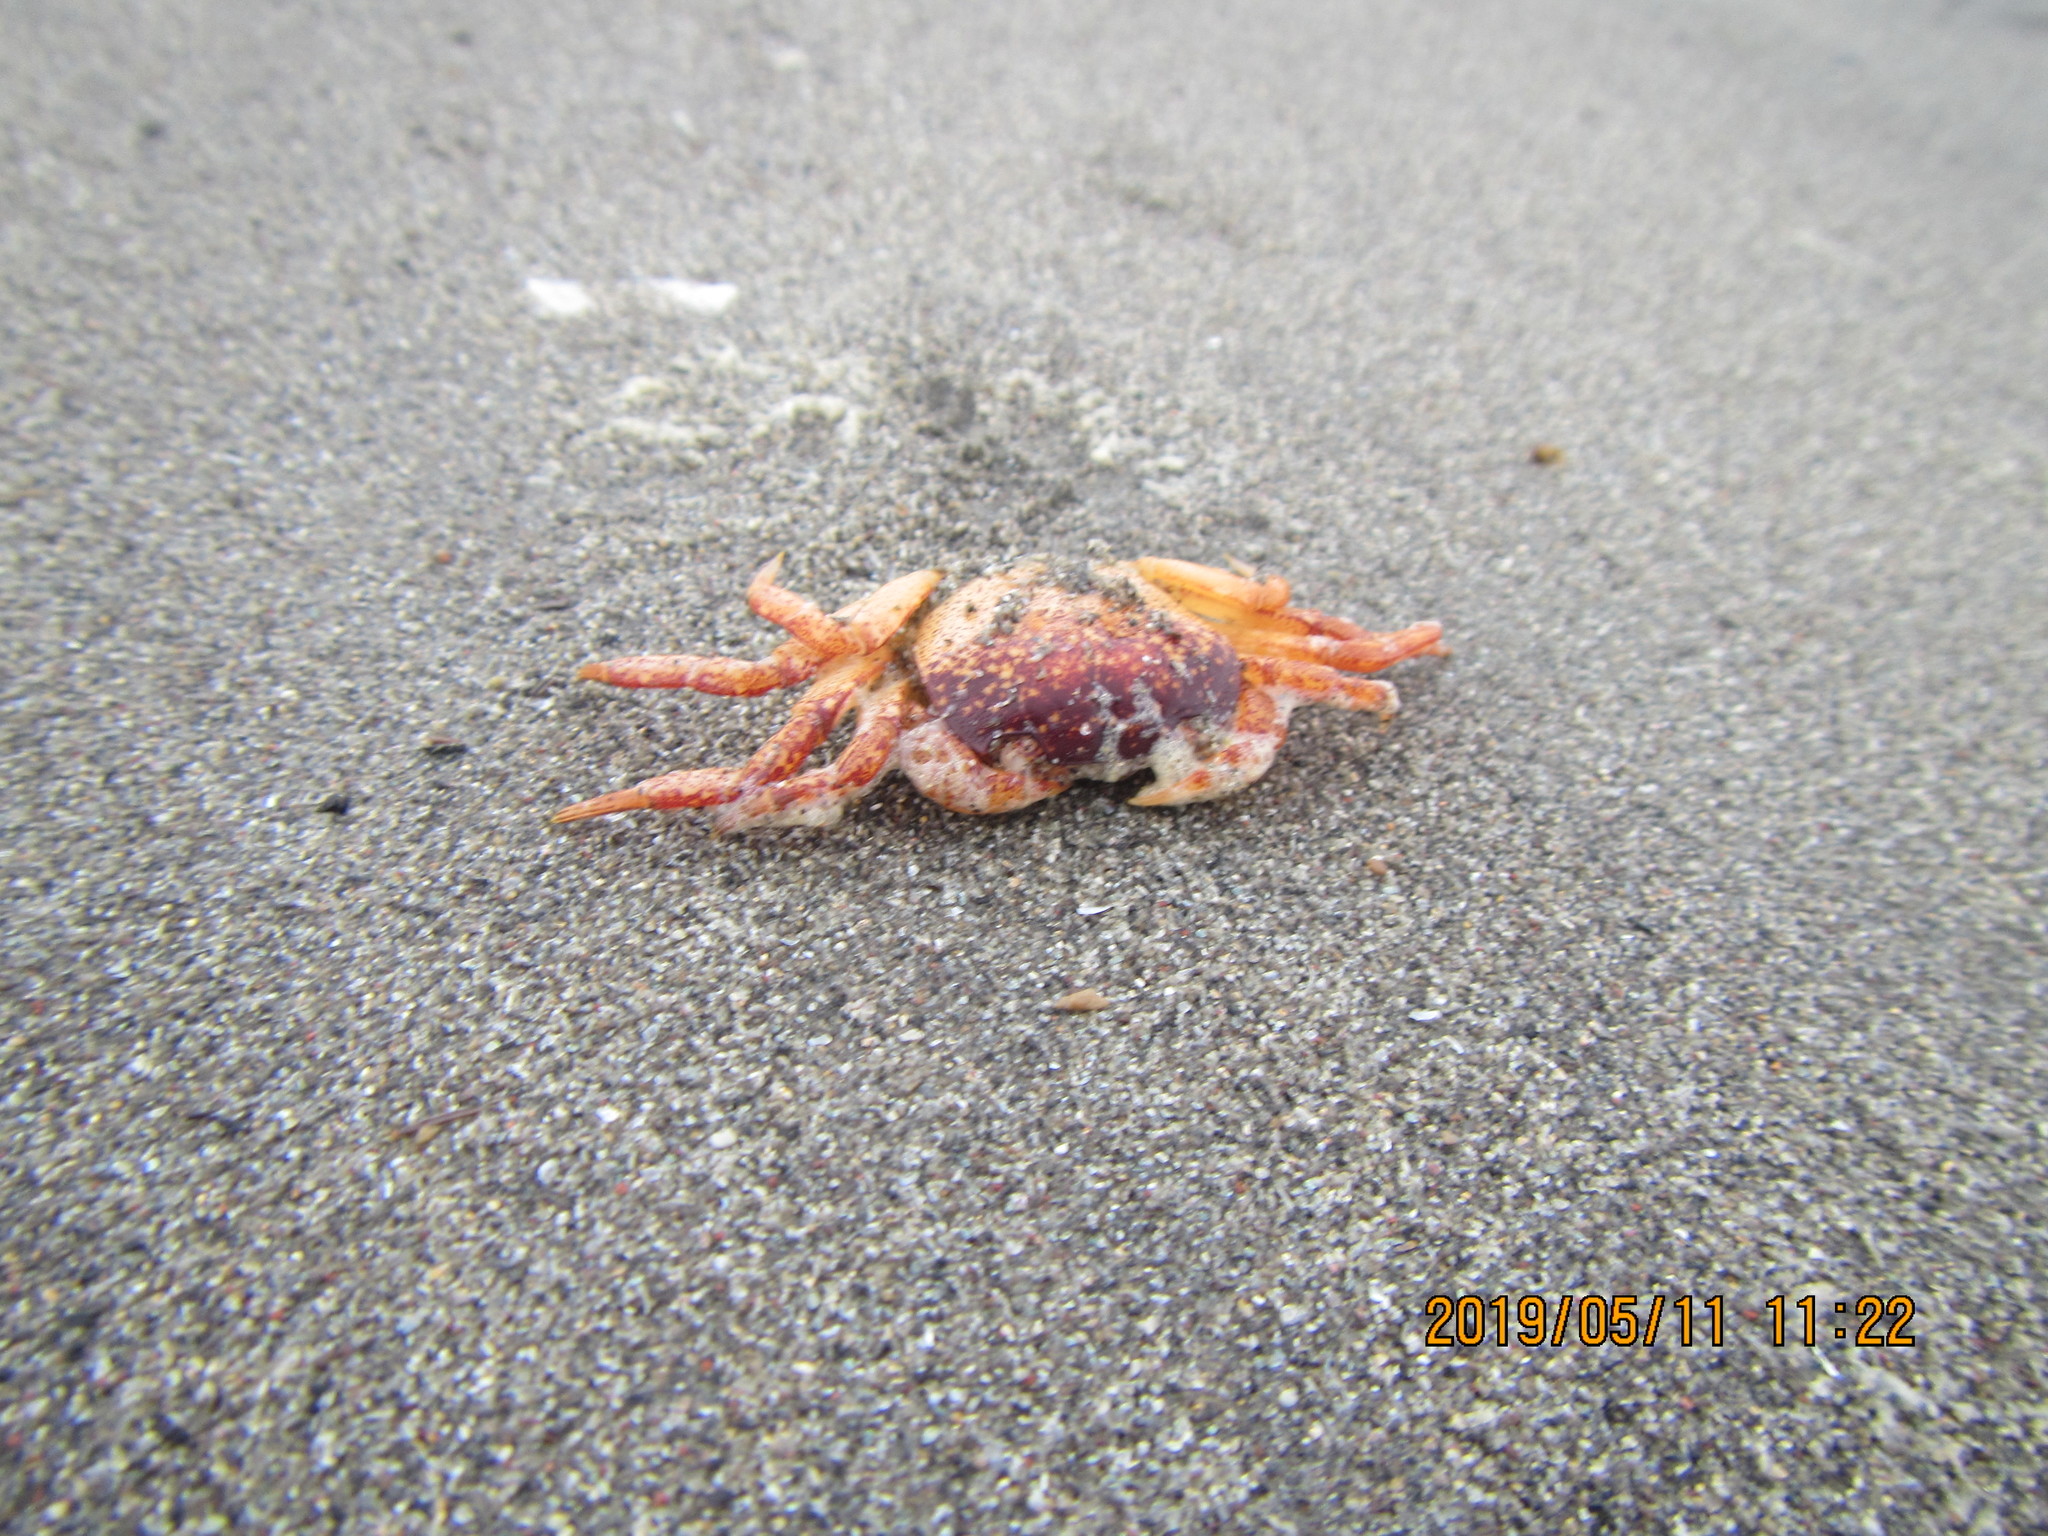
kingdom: Animalia
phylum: Arthropoda
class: Malacostraca
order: Decapoda
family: Varunidae
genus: Cyclograpsus
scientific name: Cyclograpsus lavauxi
